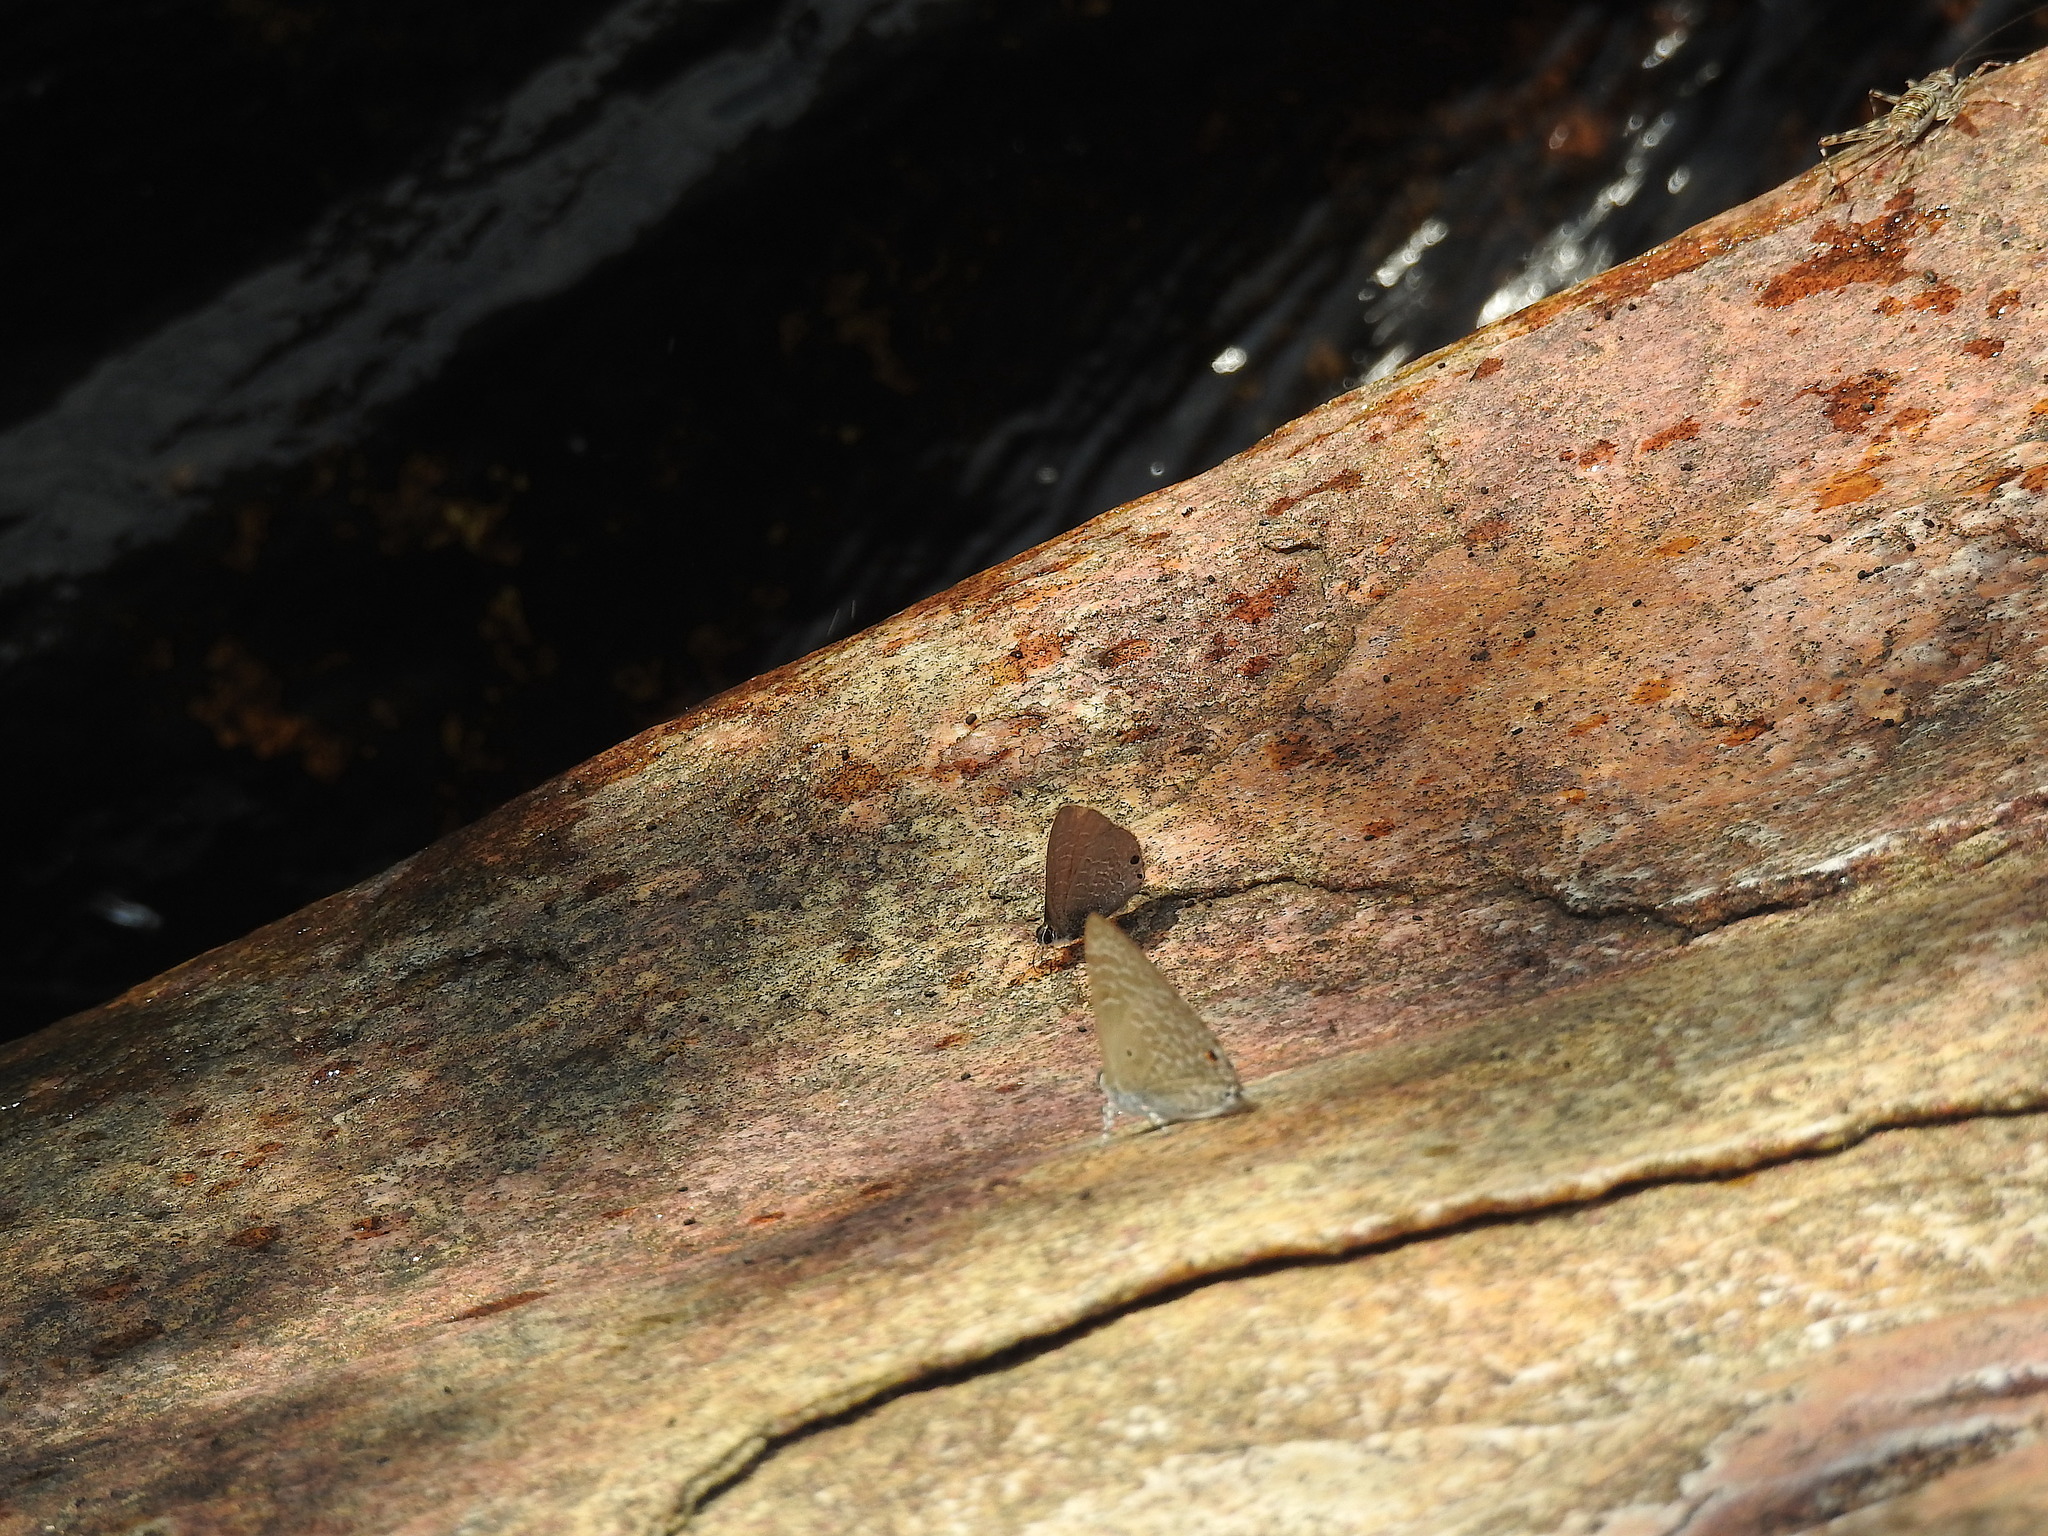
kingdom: Animalia
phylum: Arthropoda
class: Insecta
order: Lepidoptera
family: Lycaenidae
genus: Anthene
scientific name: Anthene lycaenina
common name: Pointed ciliate blue
